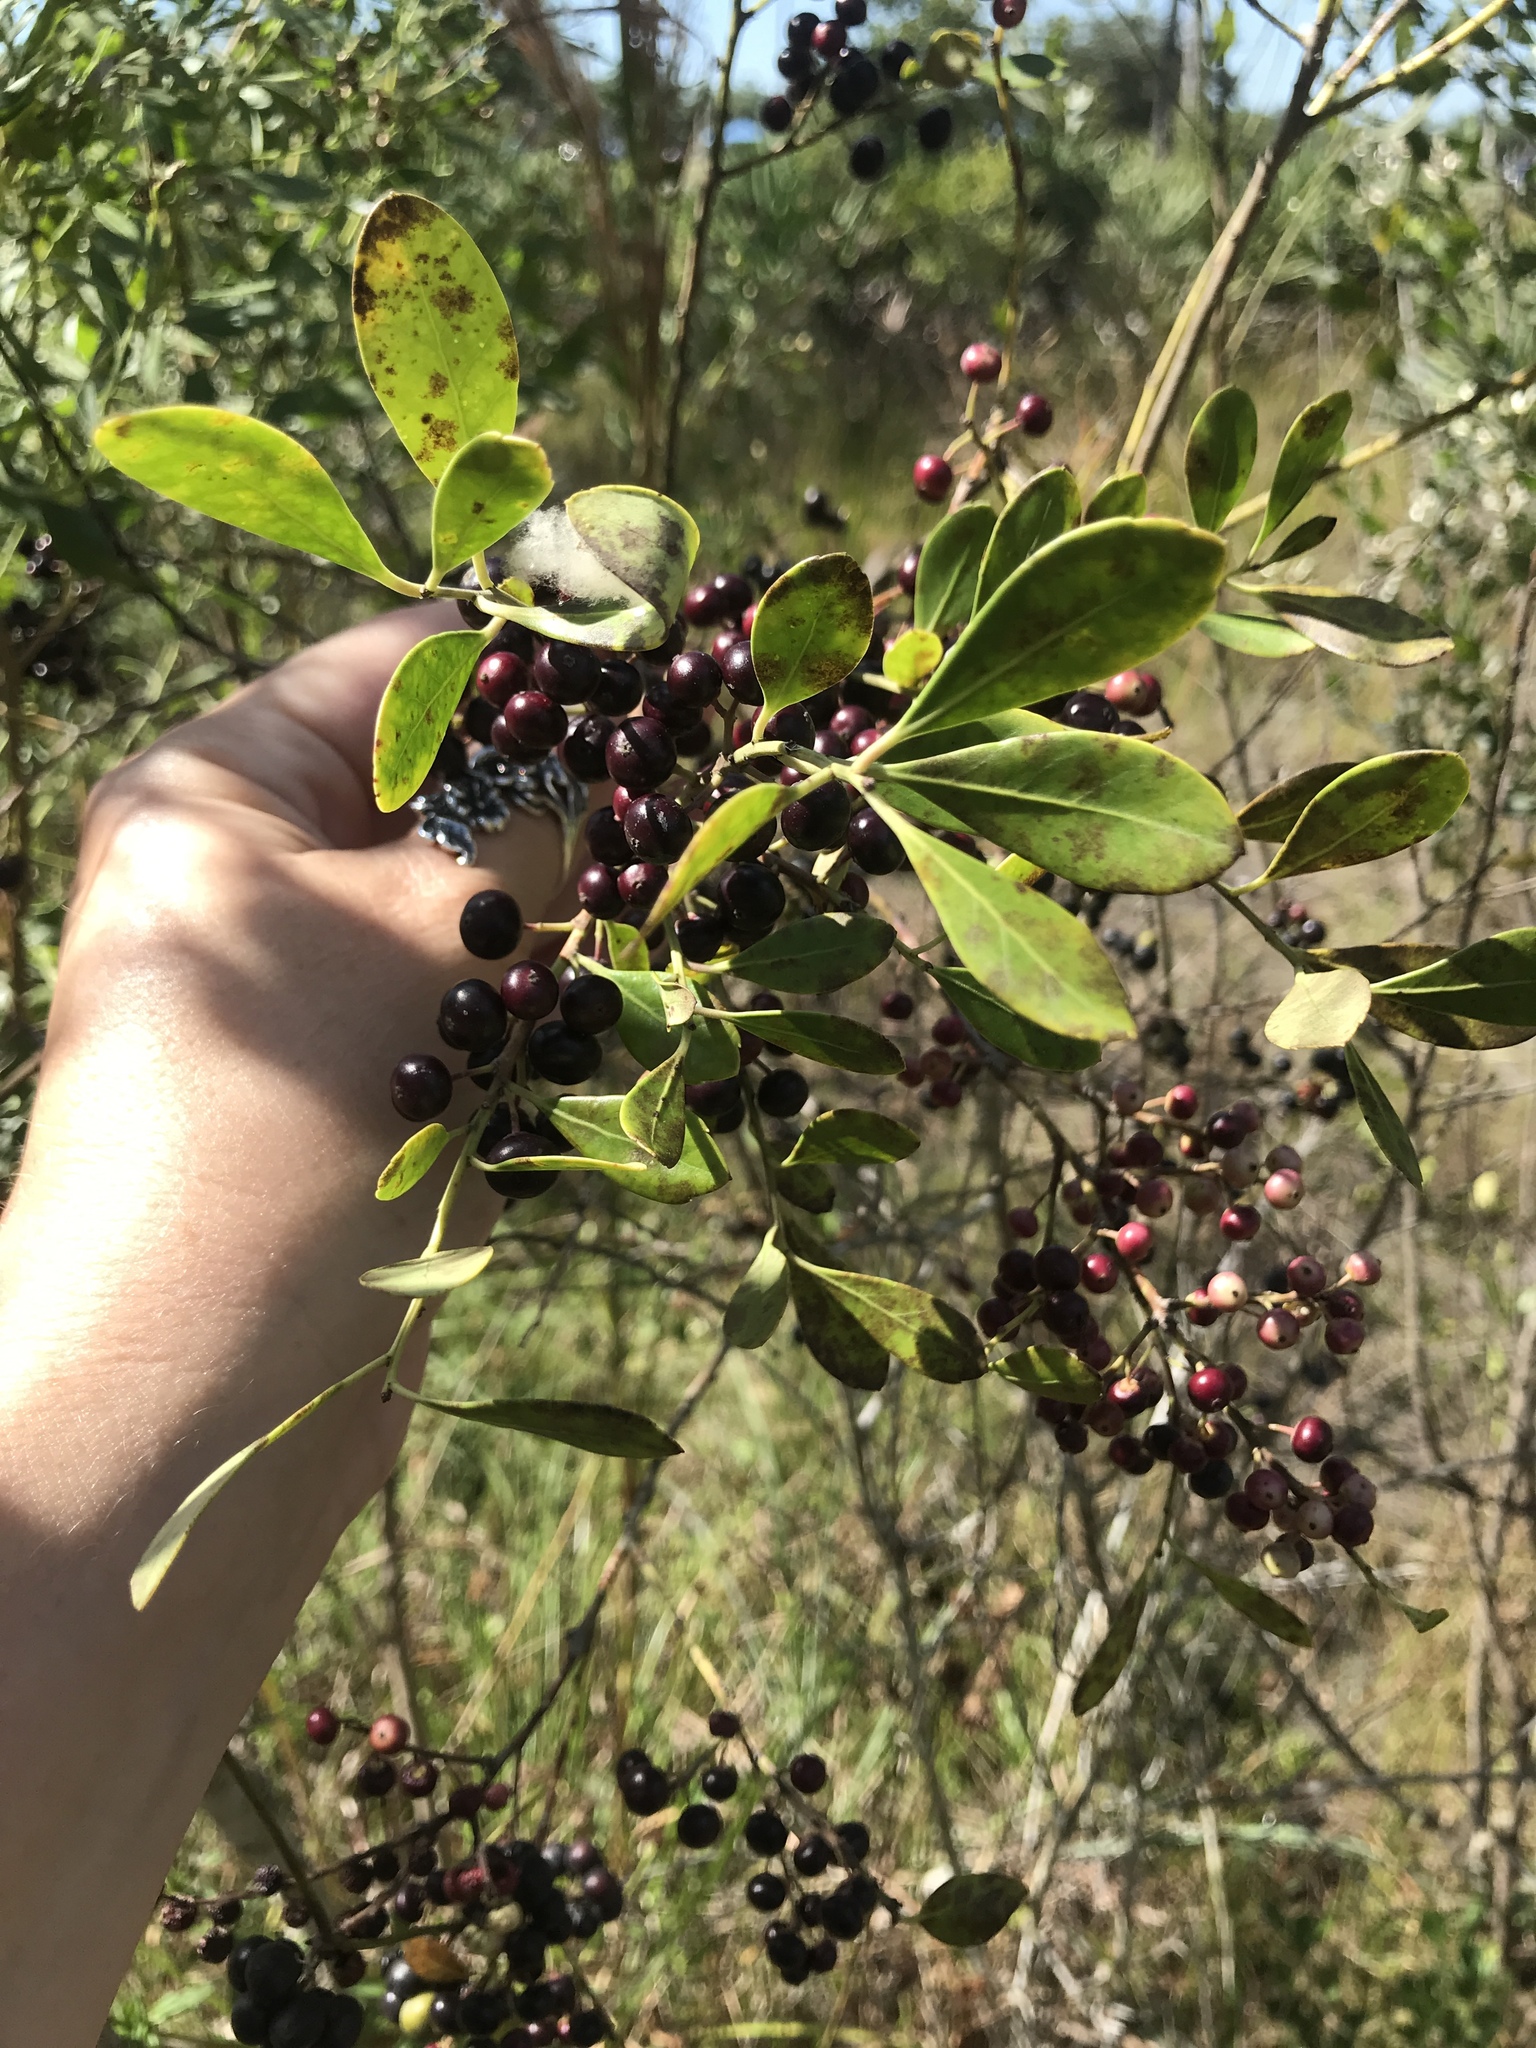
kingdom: Plantae
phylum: Tracheophyta
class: Magnoliopsida
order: Aquifoliales
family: Aquifoliaceae
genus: Ilex
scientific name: Ilex glabra
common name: Bitter gallberry
